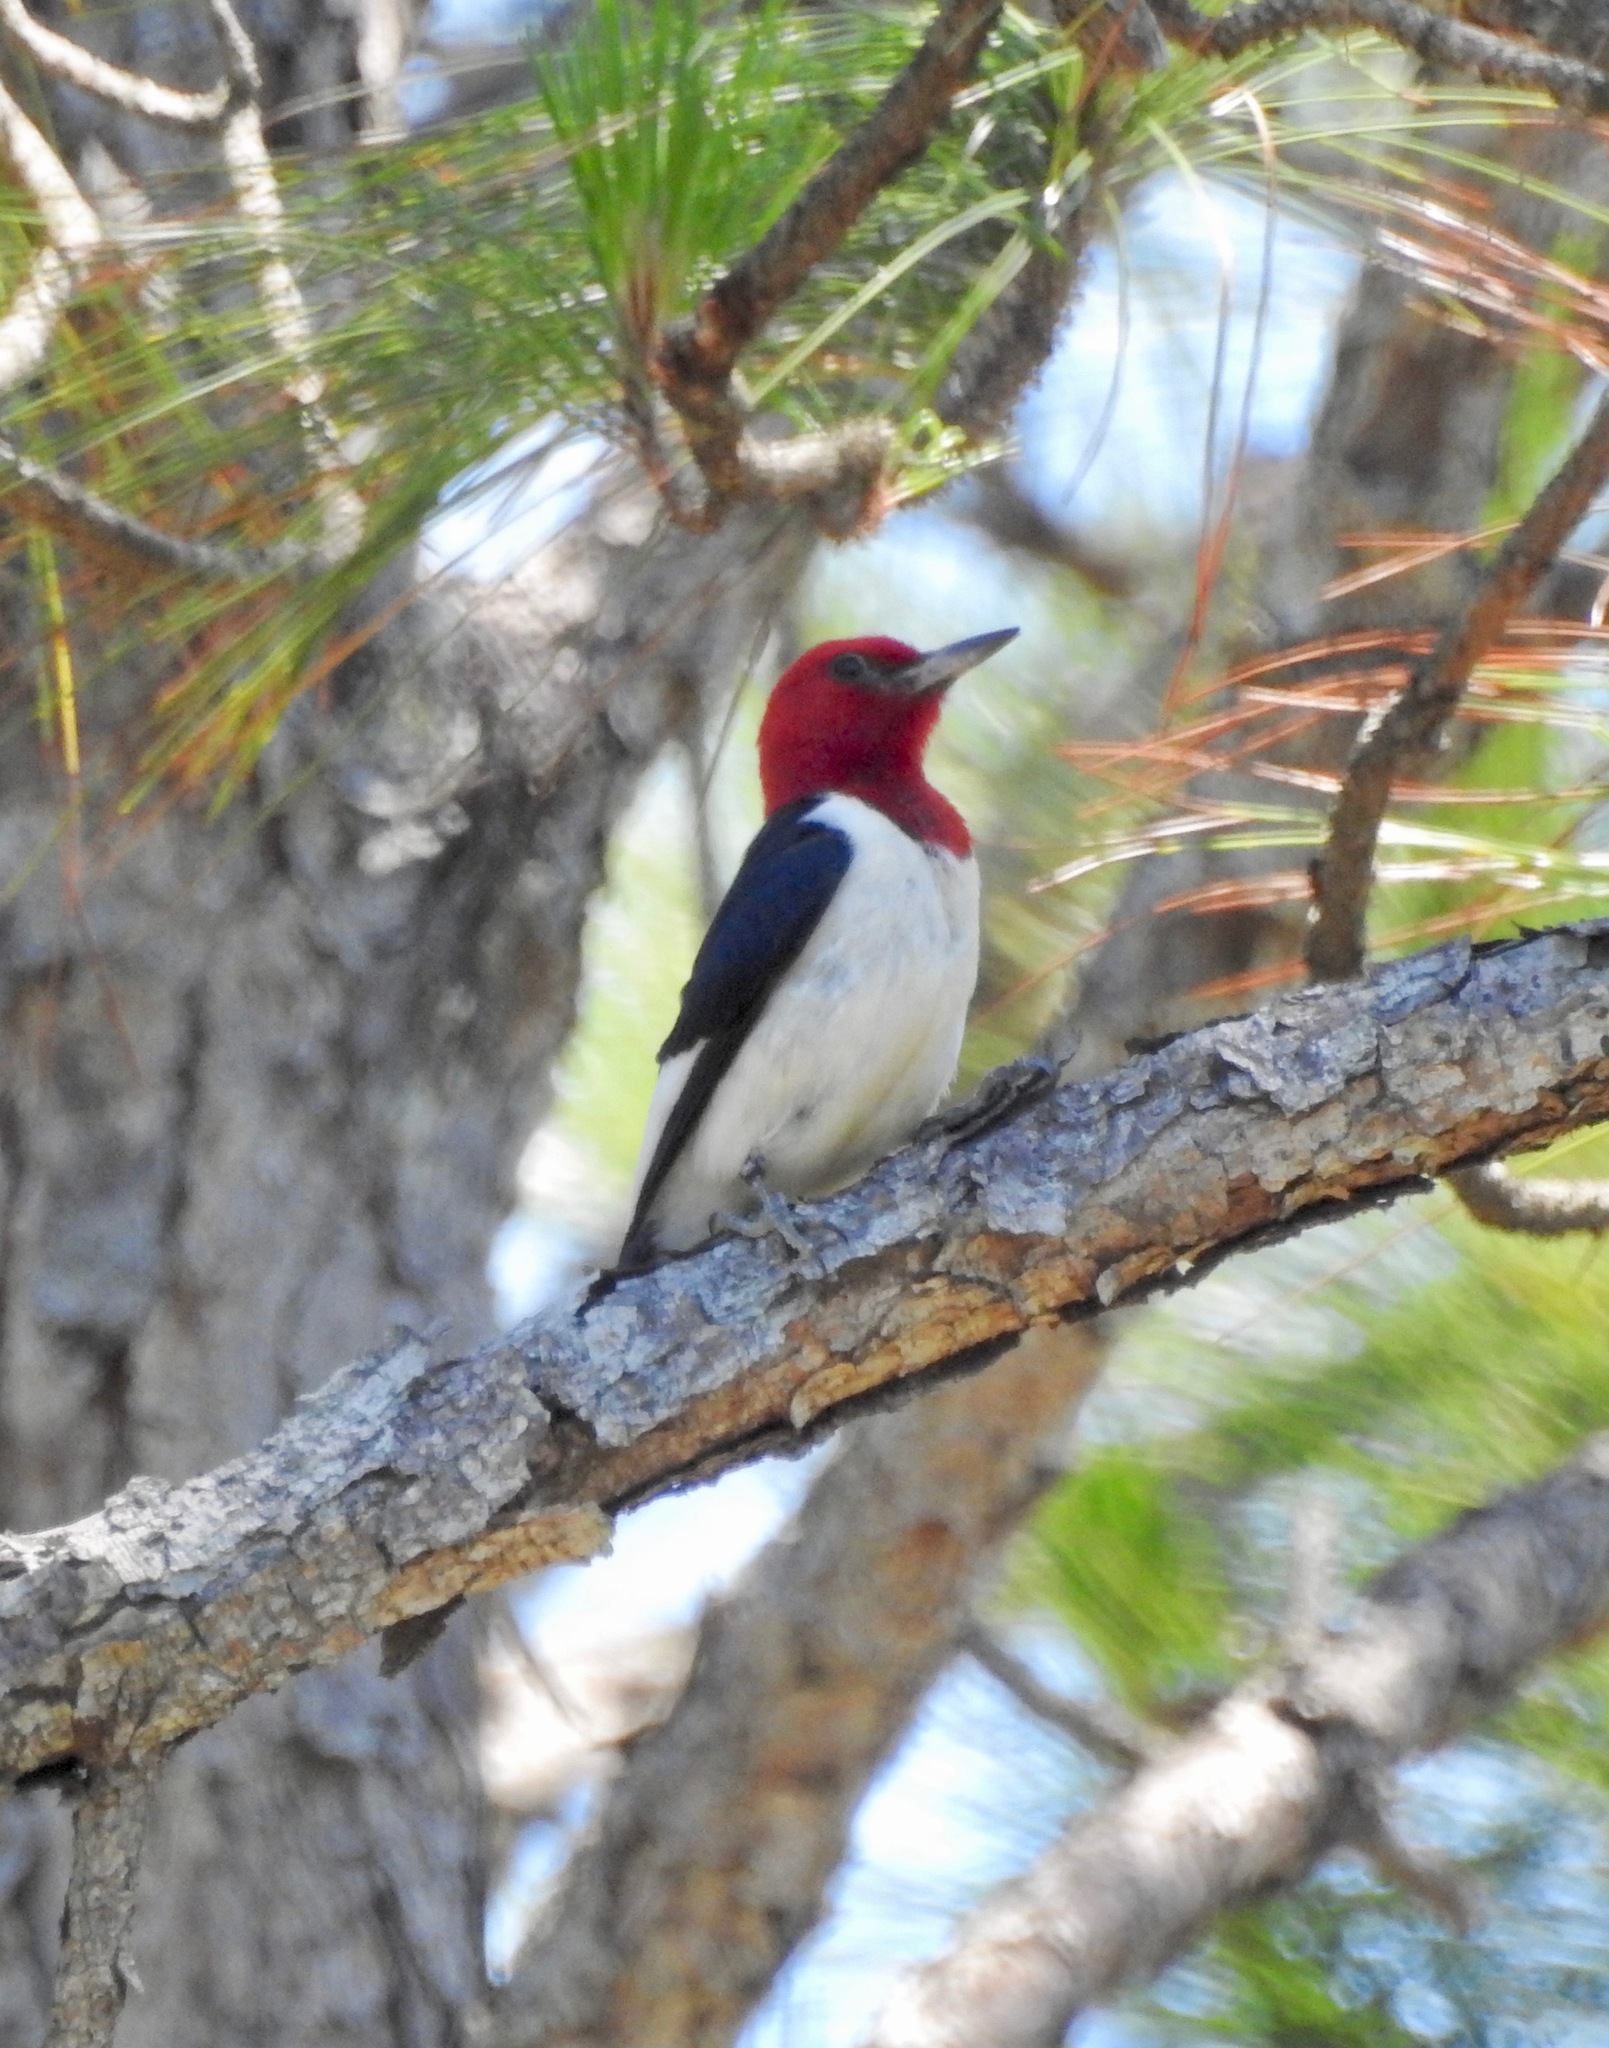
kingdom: Animalia
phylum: Chordata
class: Aves
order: Piciformes
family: Picidae
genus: Melanerpes
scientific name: Melanerpes erythrocephalus
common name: Red-headed woodpecker
